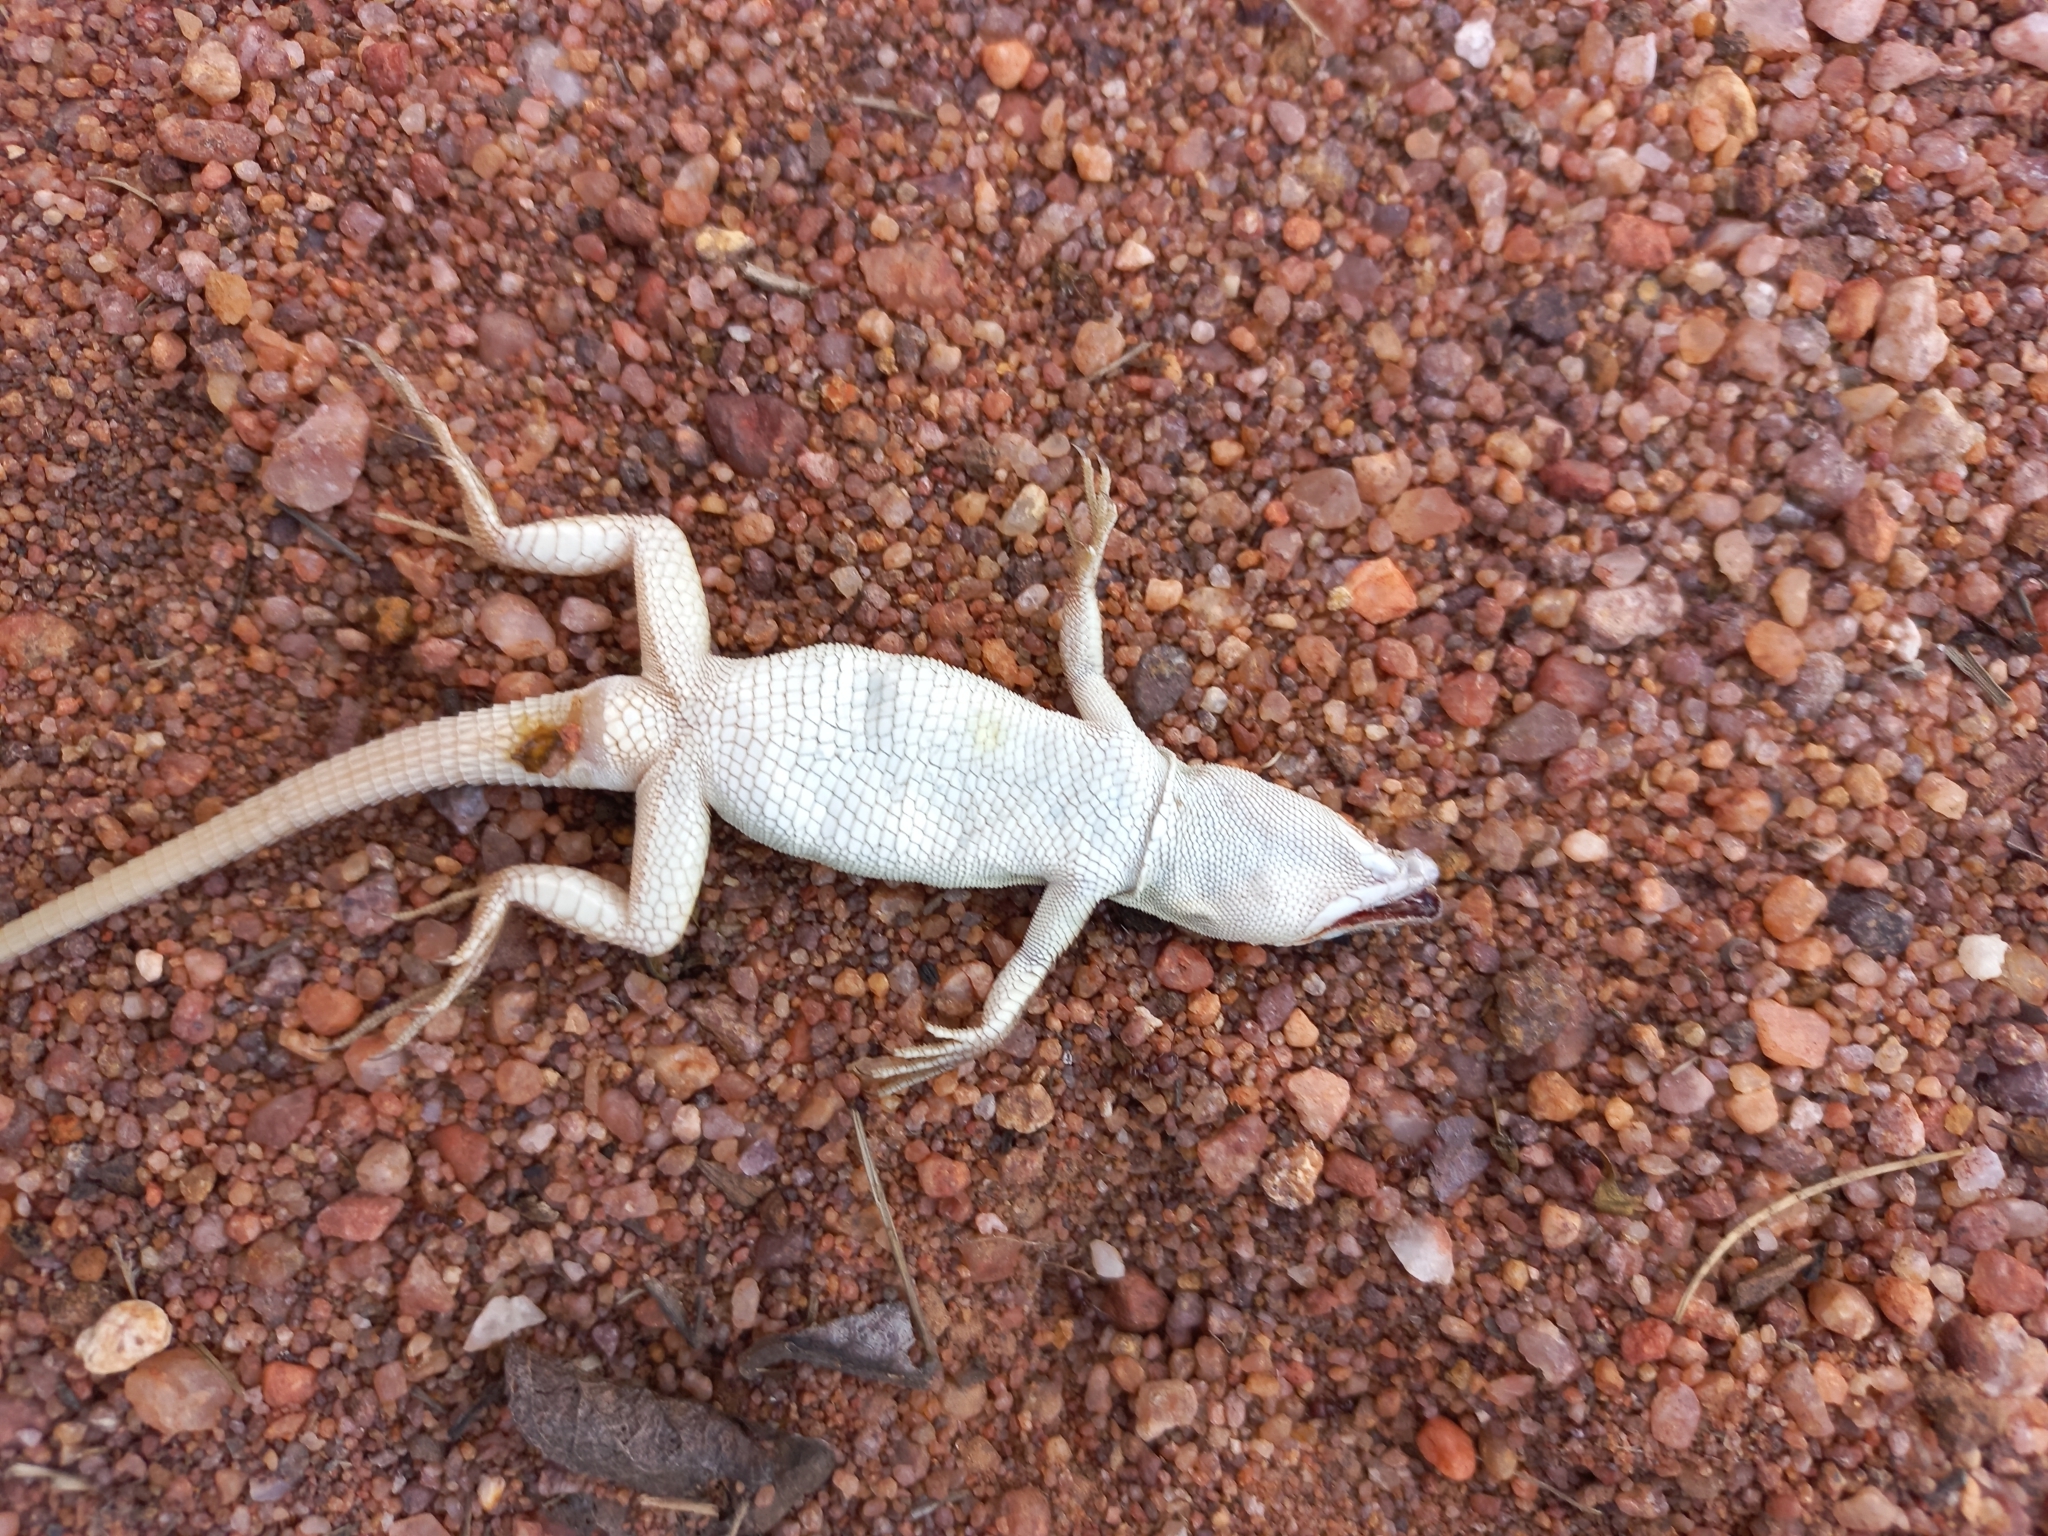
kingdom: Animalia
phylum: Chordata
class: Squamata
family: Lacertidae
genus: Pedioplanis
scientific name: Pedioplanis lineoocellata
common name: Spotted sand lizard
